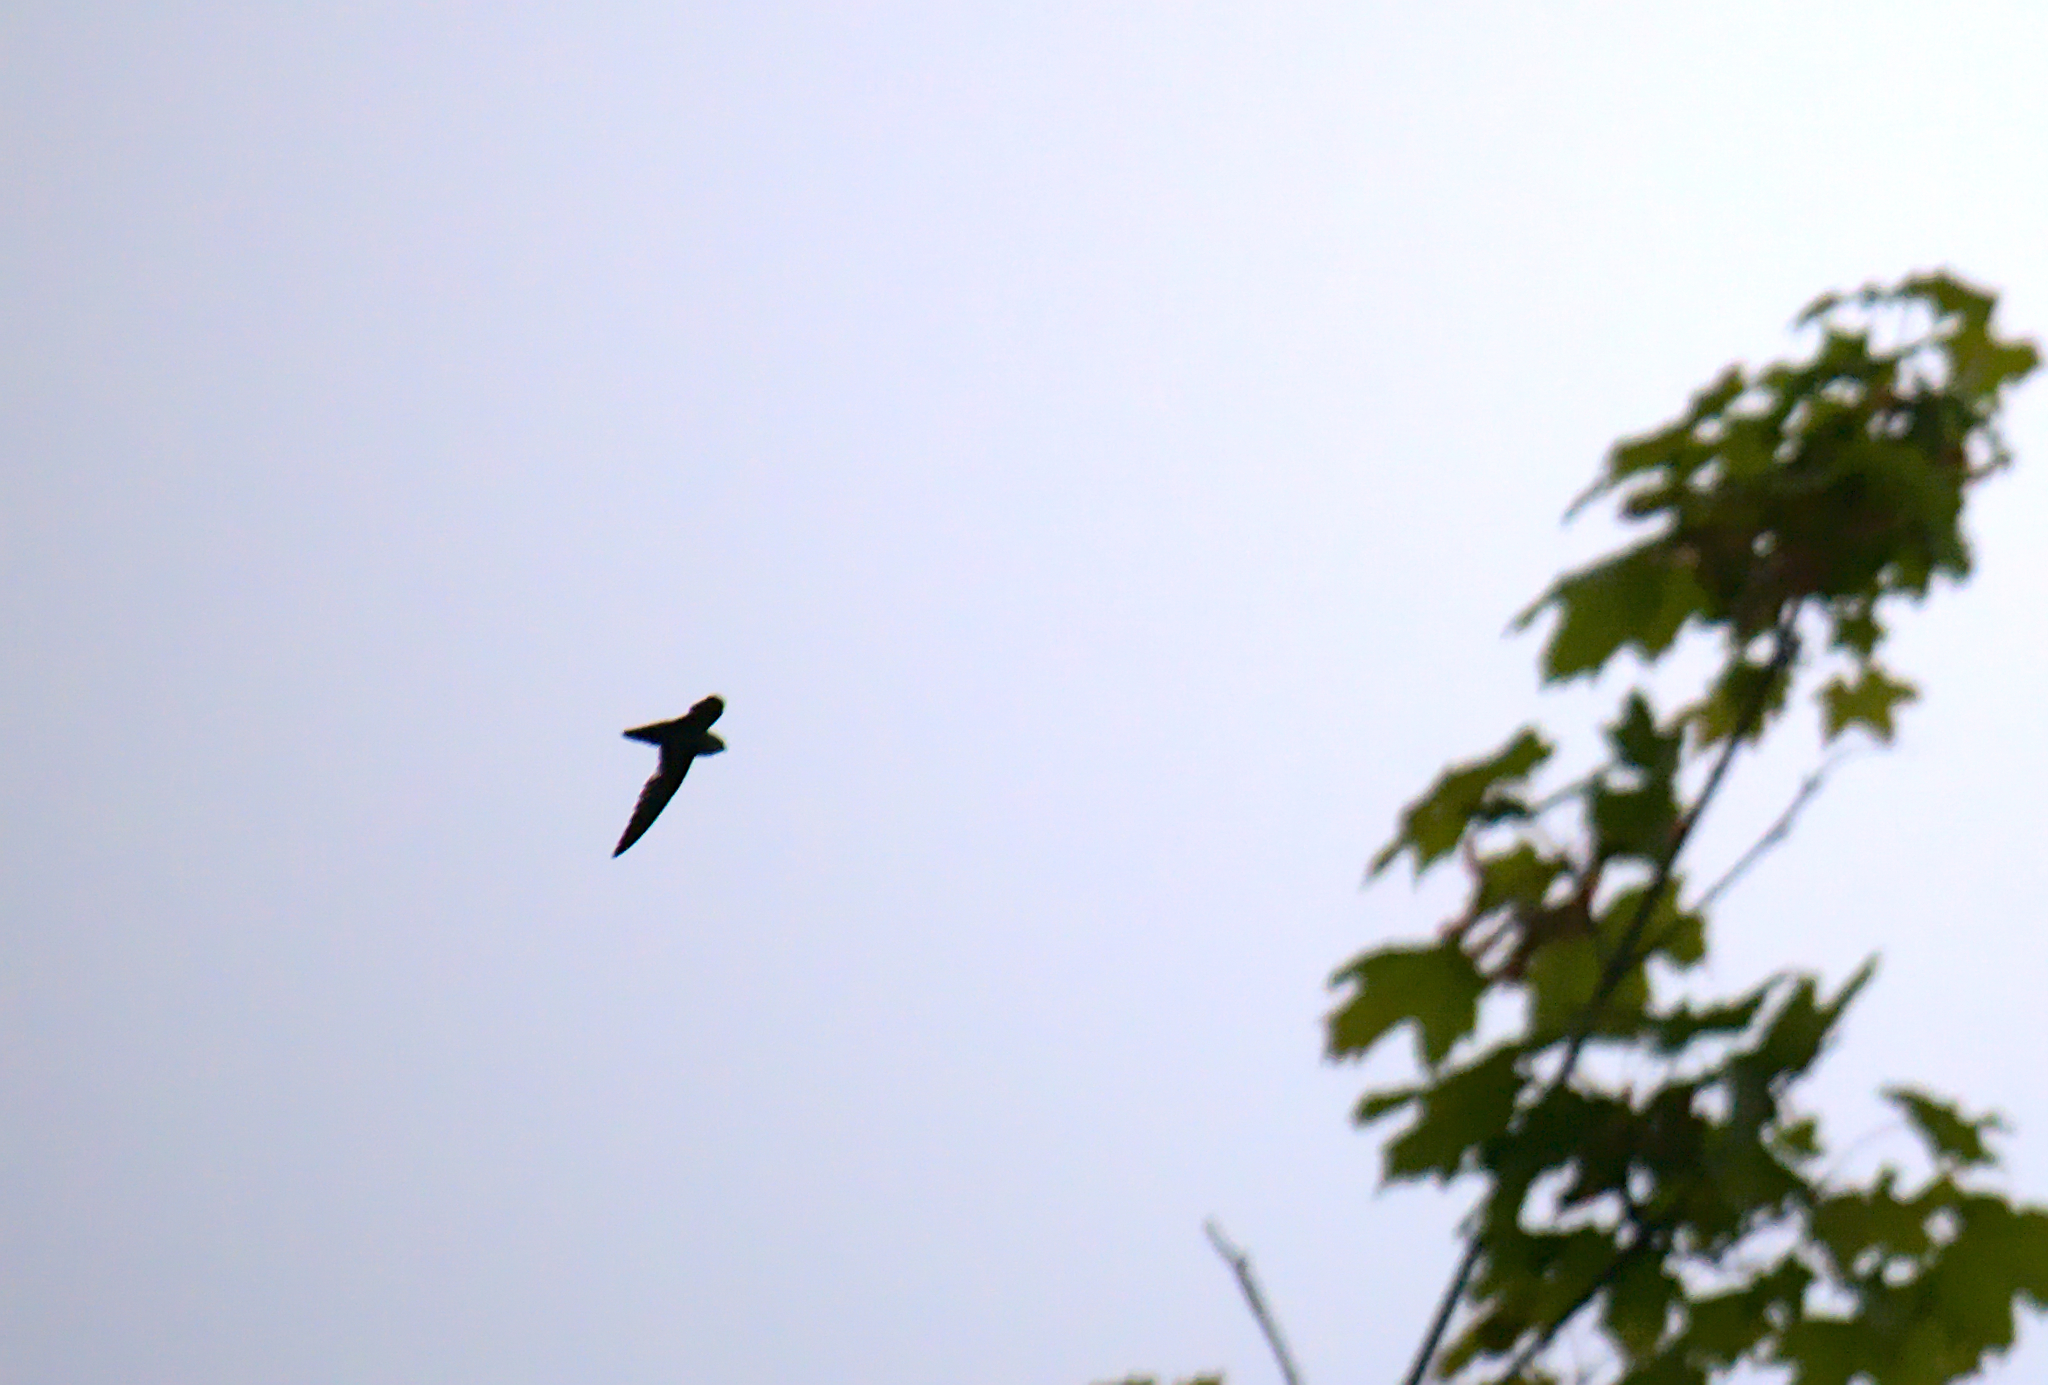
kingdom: Animalia
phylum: Chordata
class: Aves
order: Apodiformes
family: Apodidae
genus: Chaetura
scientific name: Chaetura pelagica
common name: Chimney swift
